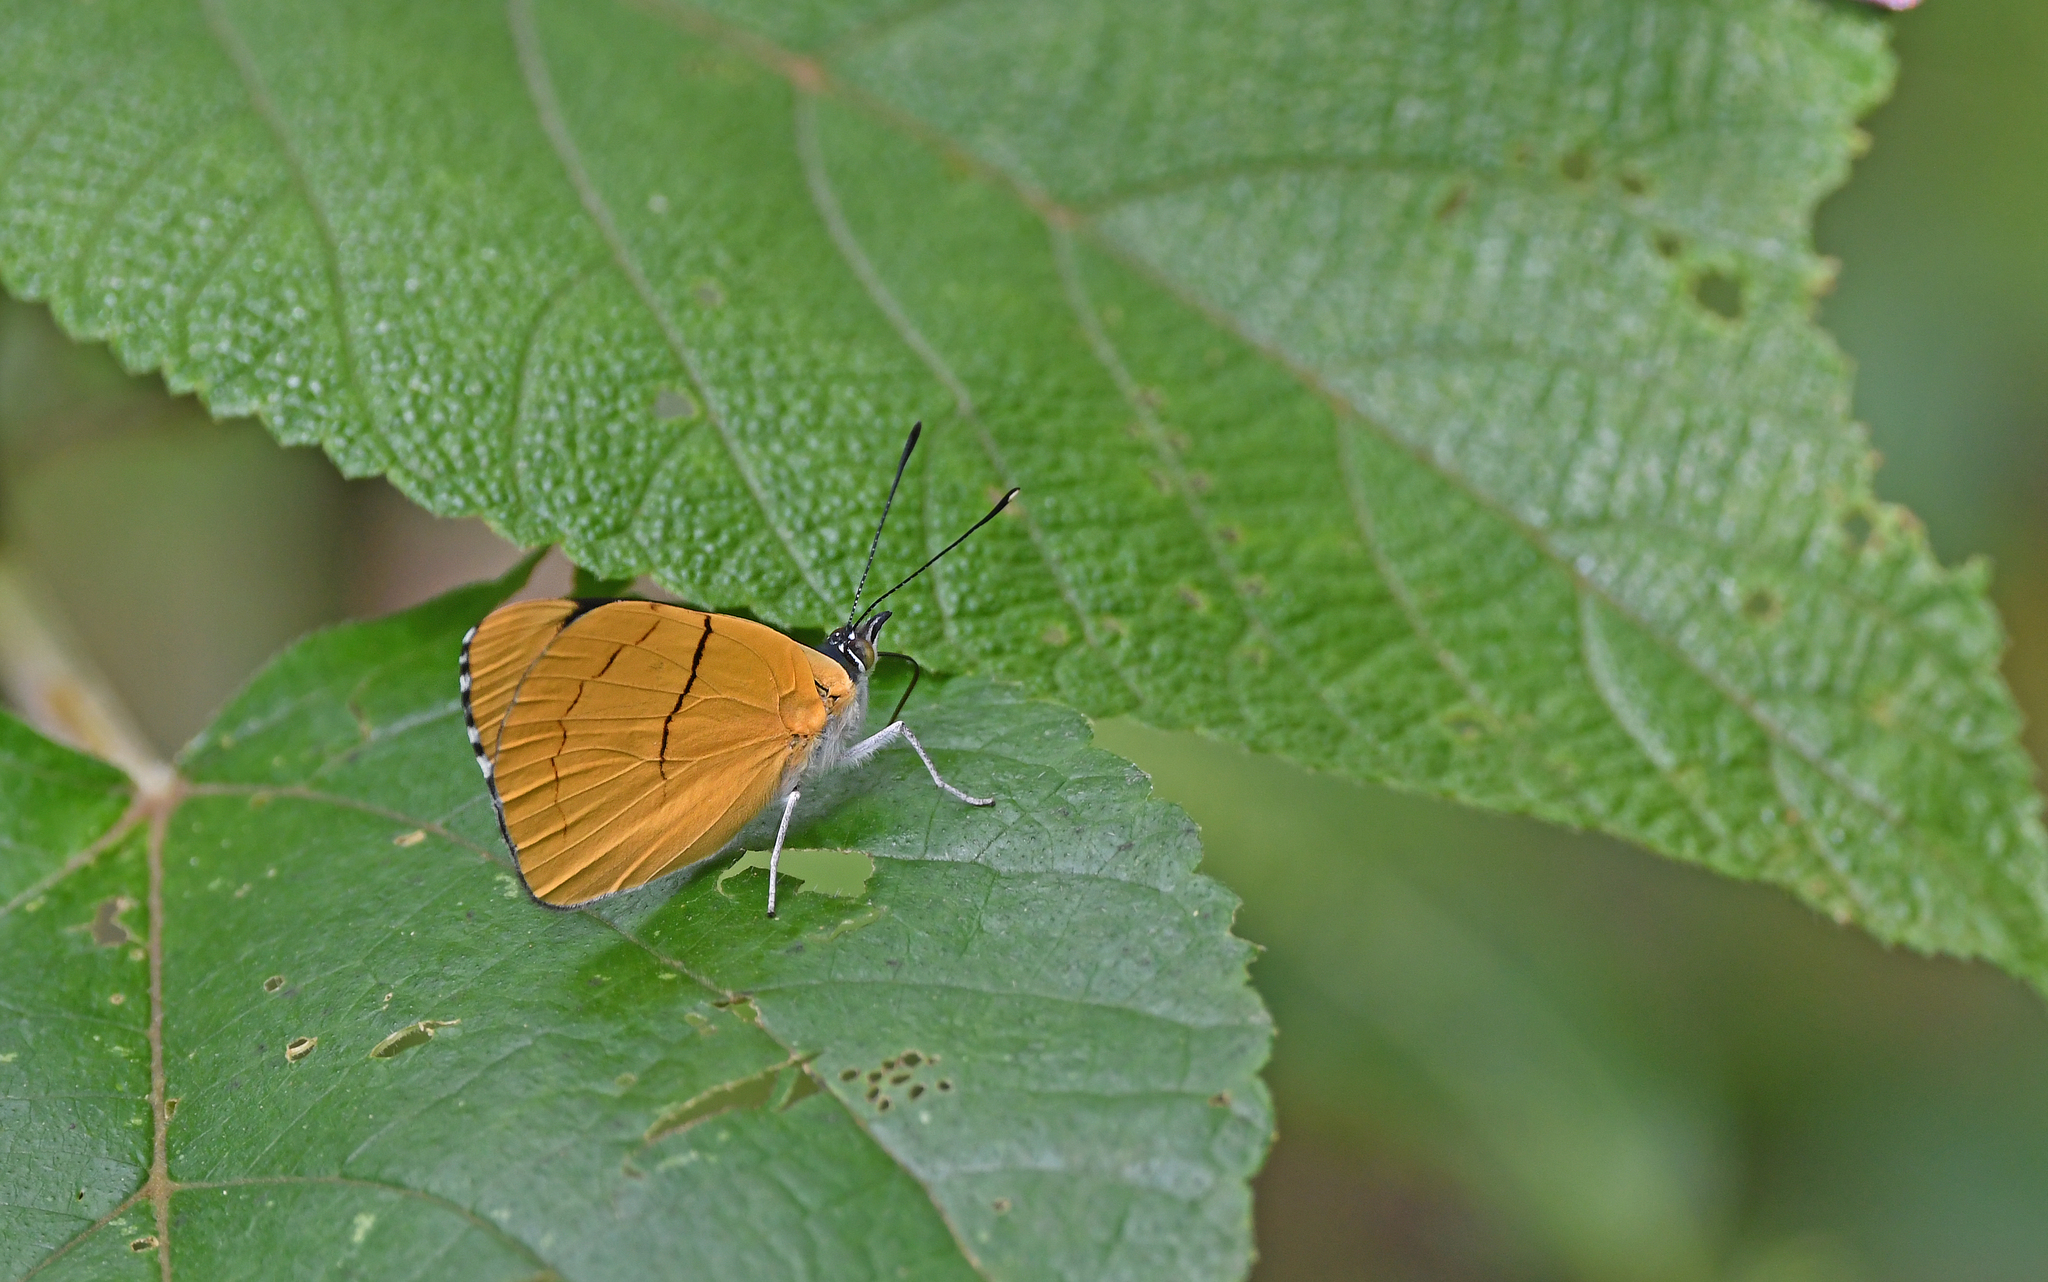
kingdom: Animalia
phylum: Arthropoda
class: Insecta
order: Lepidoptera
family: Nymphalidae
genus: Perisama
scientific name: Perisama comnena
